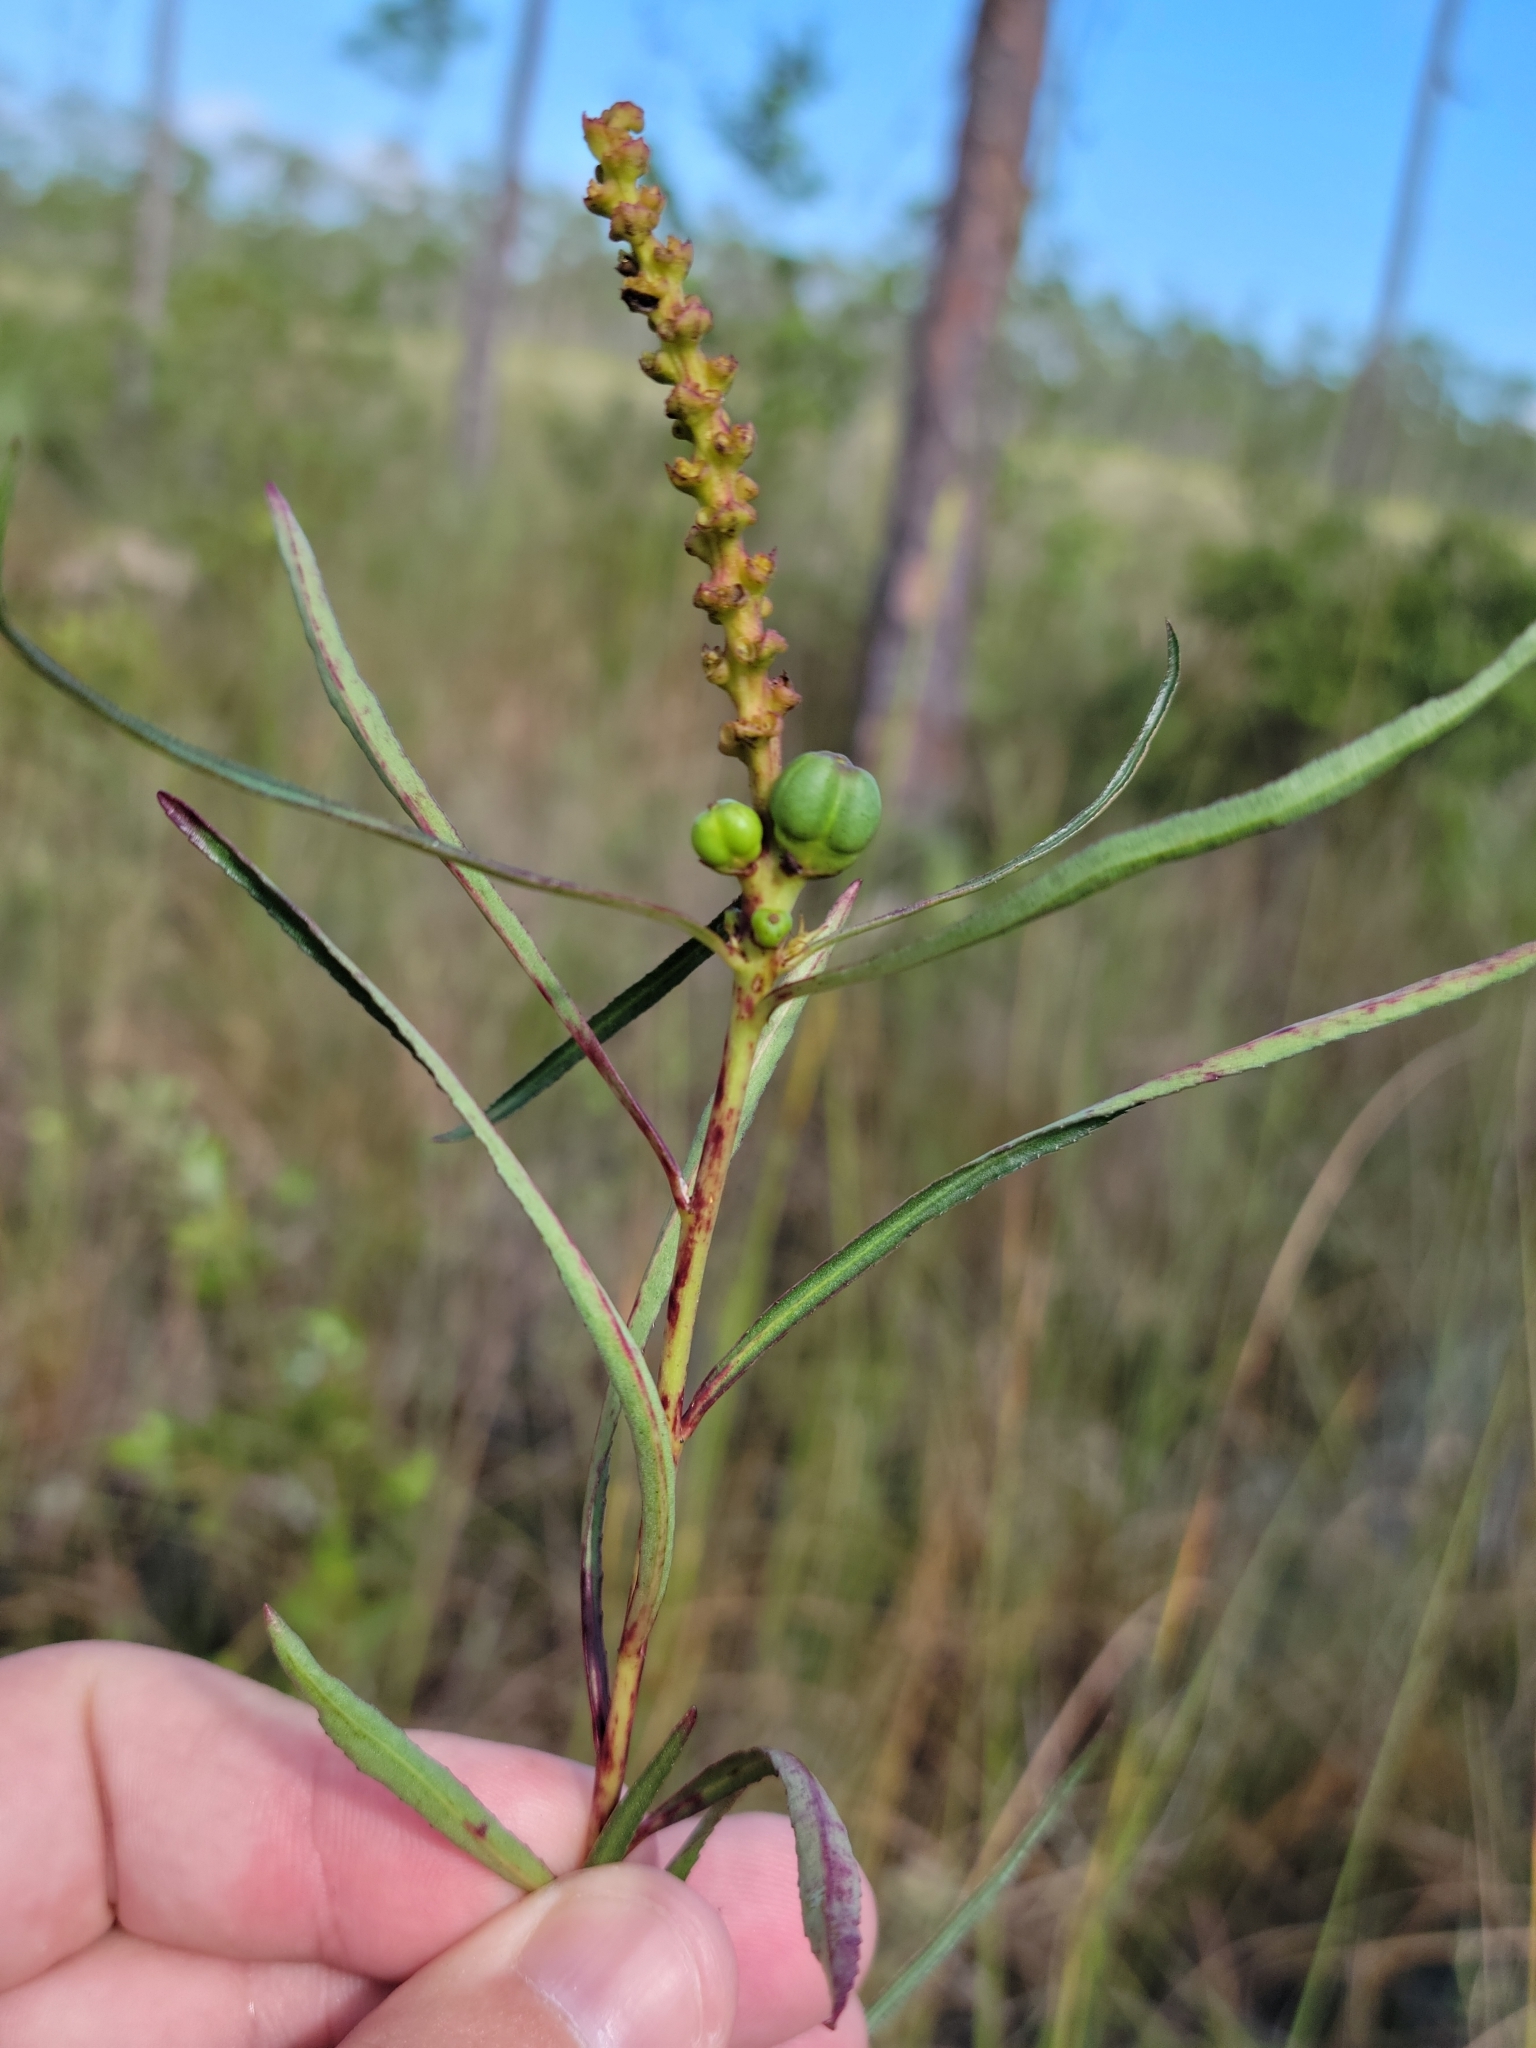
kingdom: Plantae
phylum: Tracheophyta
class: Magnoliopsida
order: Malpighiales
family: Euphorbiaceae
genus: Stillingia
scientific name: Stillingia sylvatica
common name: Queen's-delight
